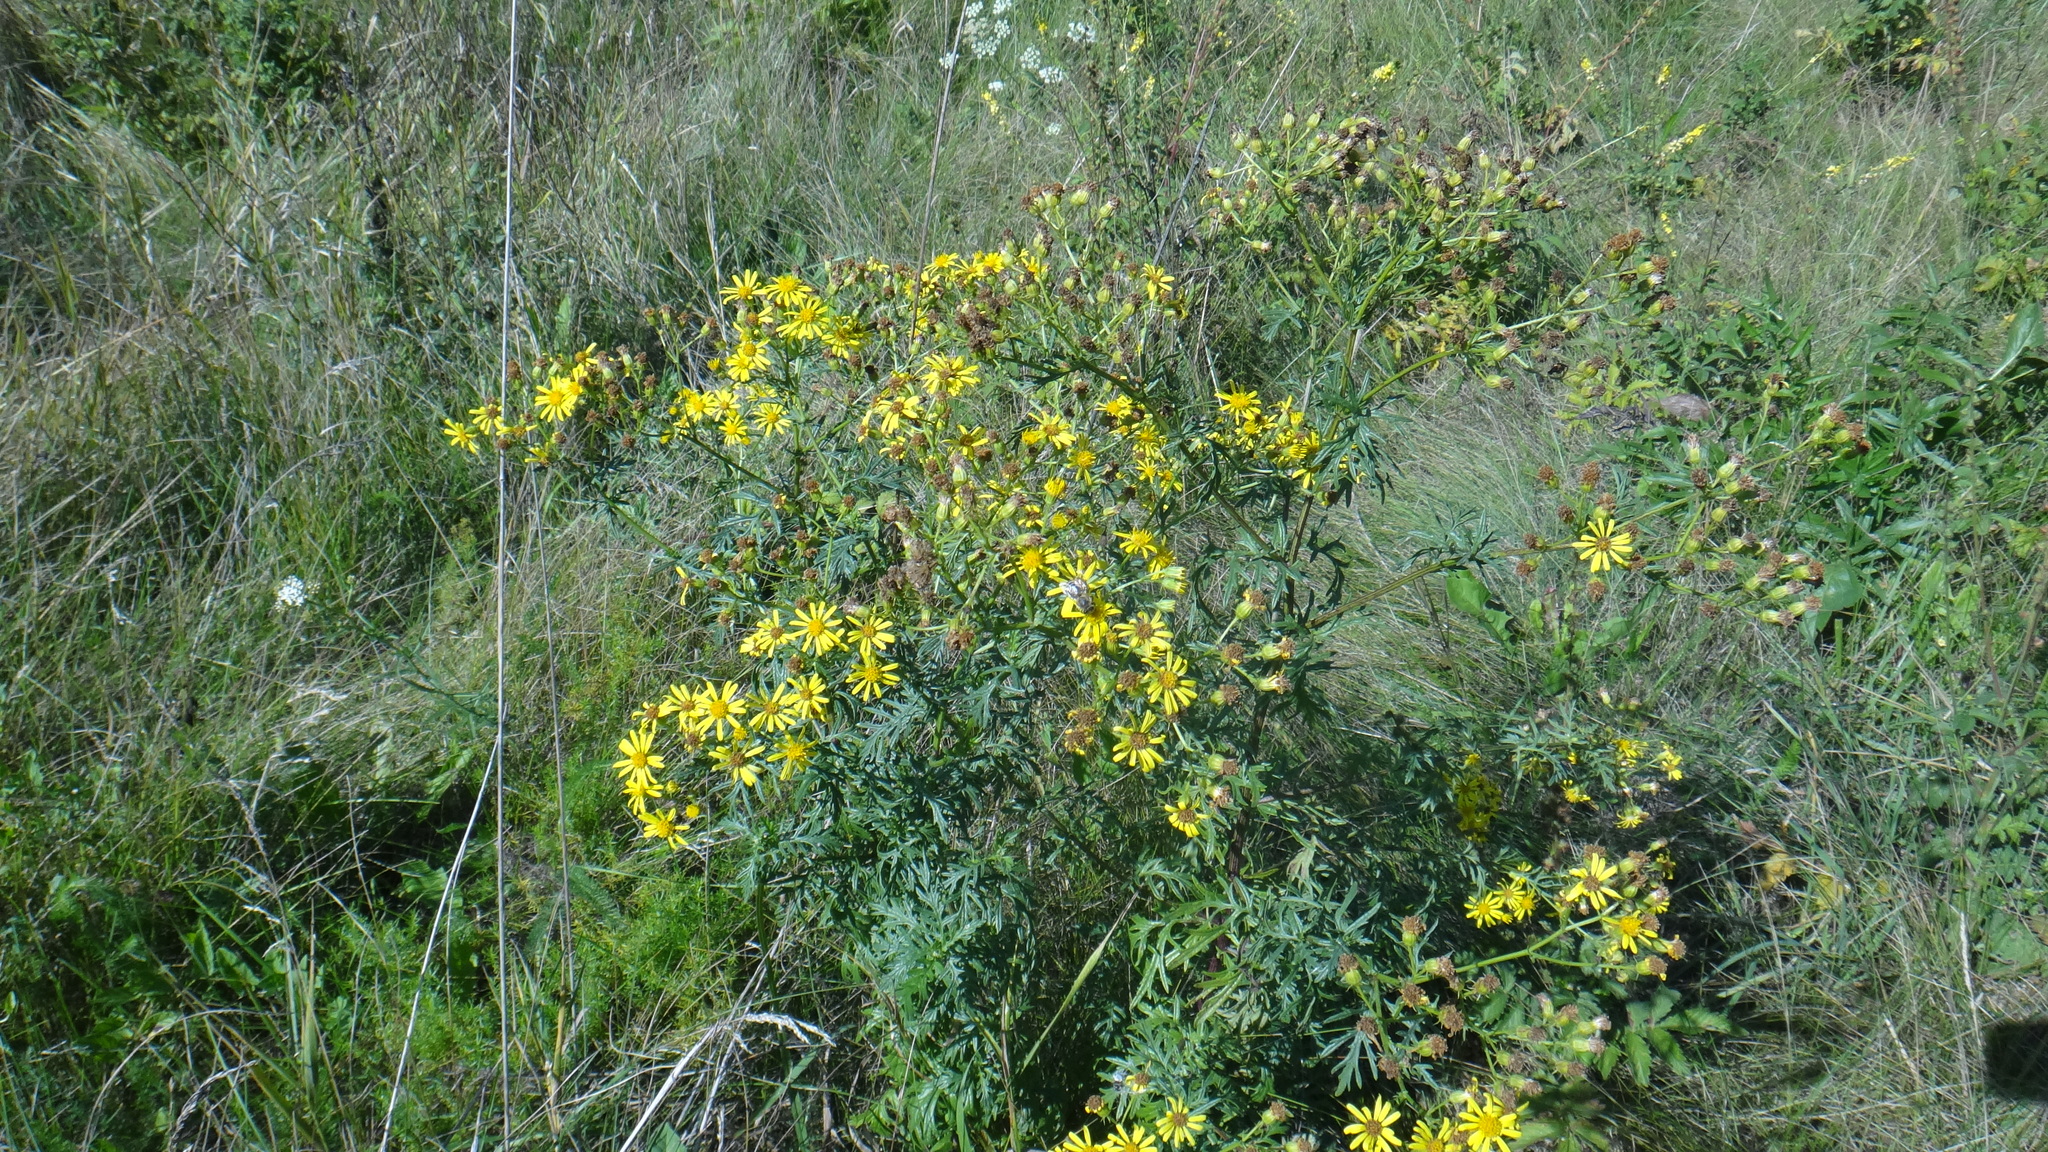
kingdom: Plantae
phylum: Tracheophyta
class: Magnoliopsida
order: Asterales
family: Asteraceae
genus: Jacobaea
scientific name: Jacobaea erucifolia
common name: Hoary ragwort
